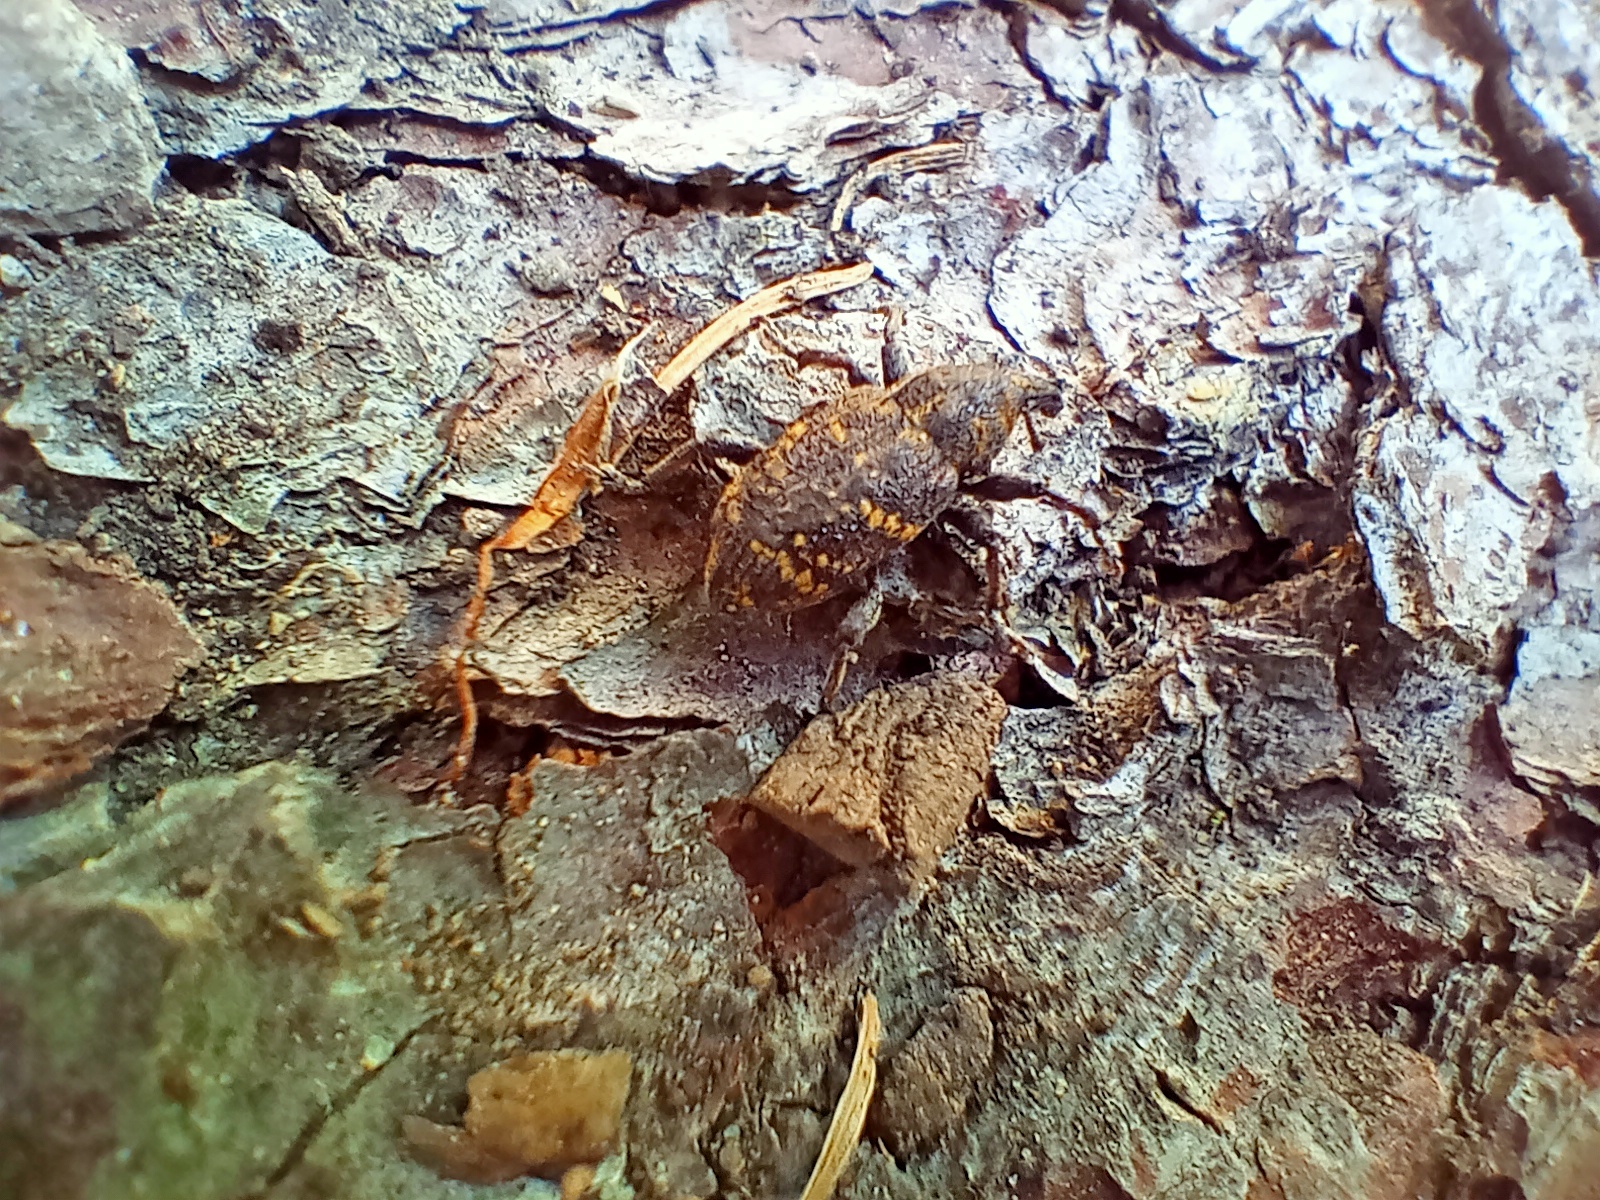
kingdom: Animalia
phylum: Arthropoda
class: Insecta
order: Coleoptera
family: Curculionidae
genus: Hylobius
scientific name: Hylobius abietis
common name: Large pine weevil
